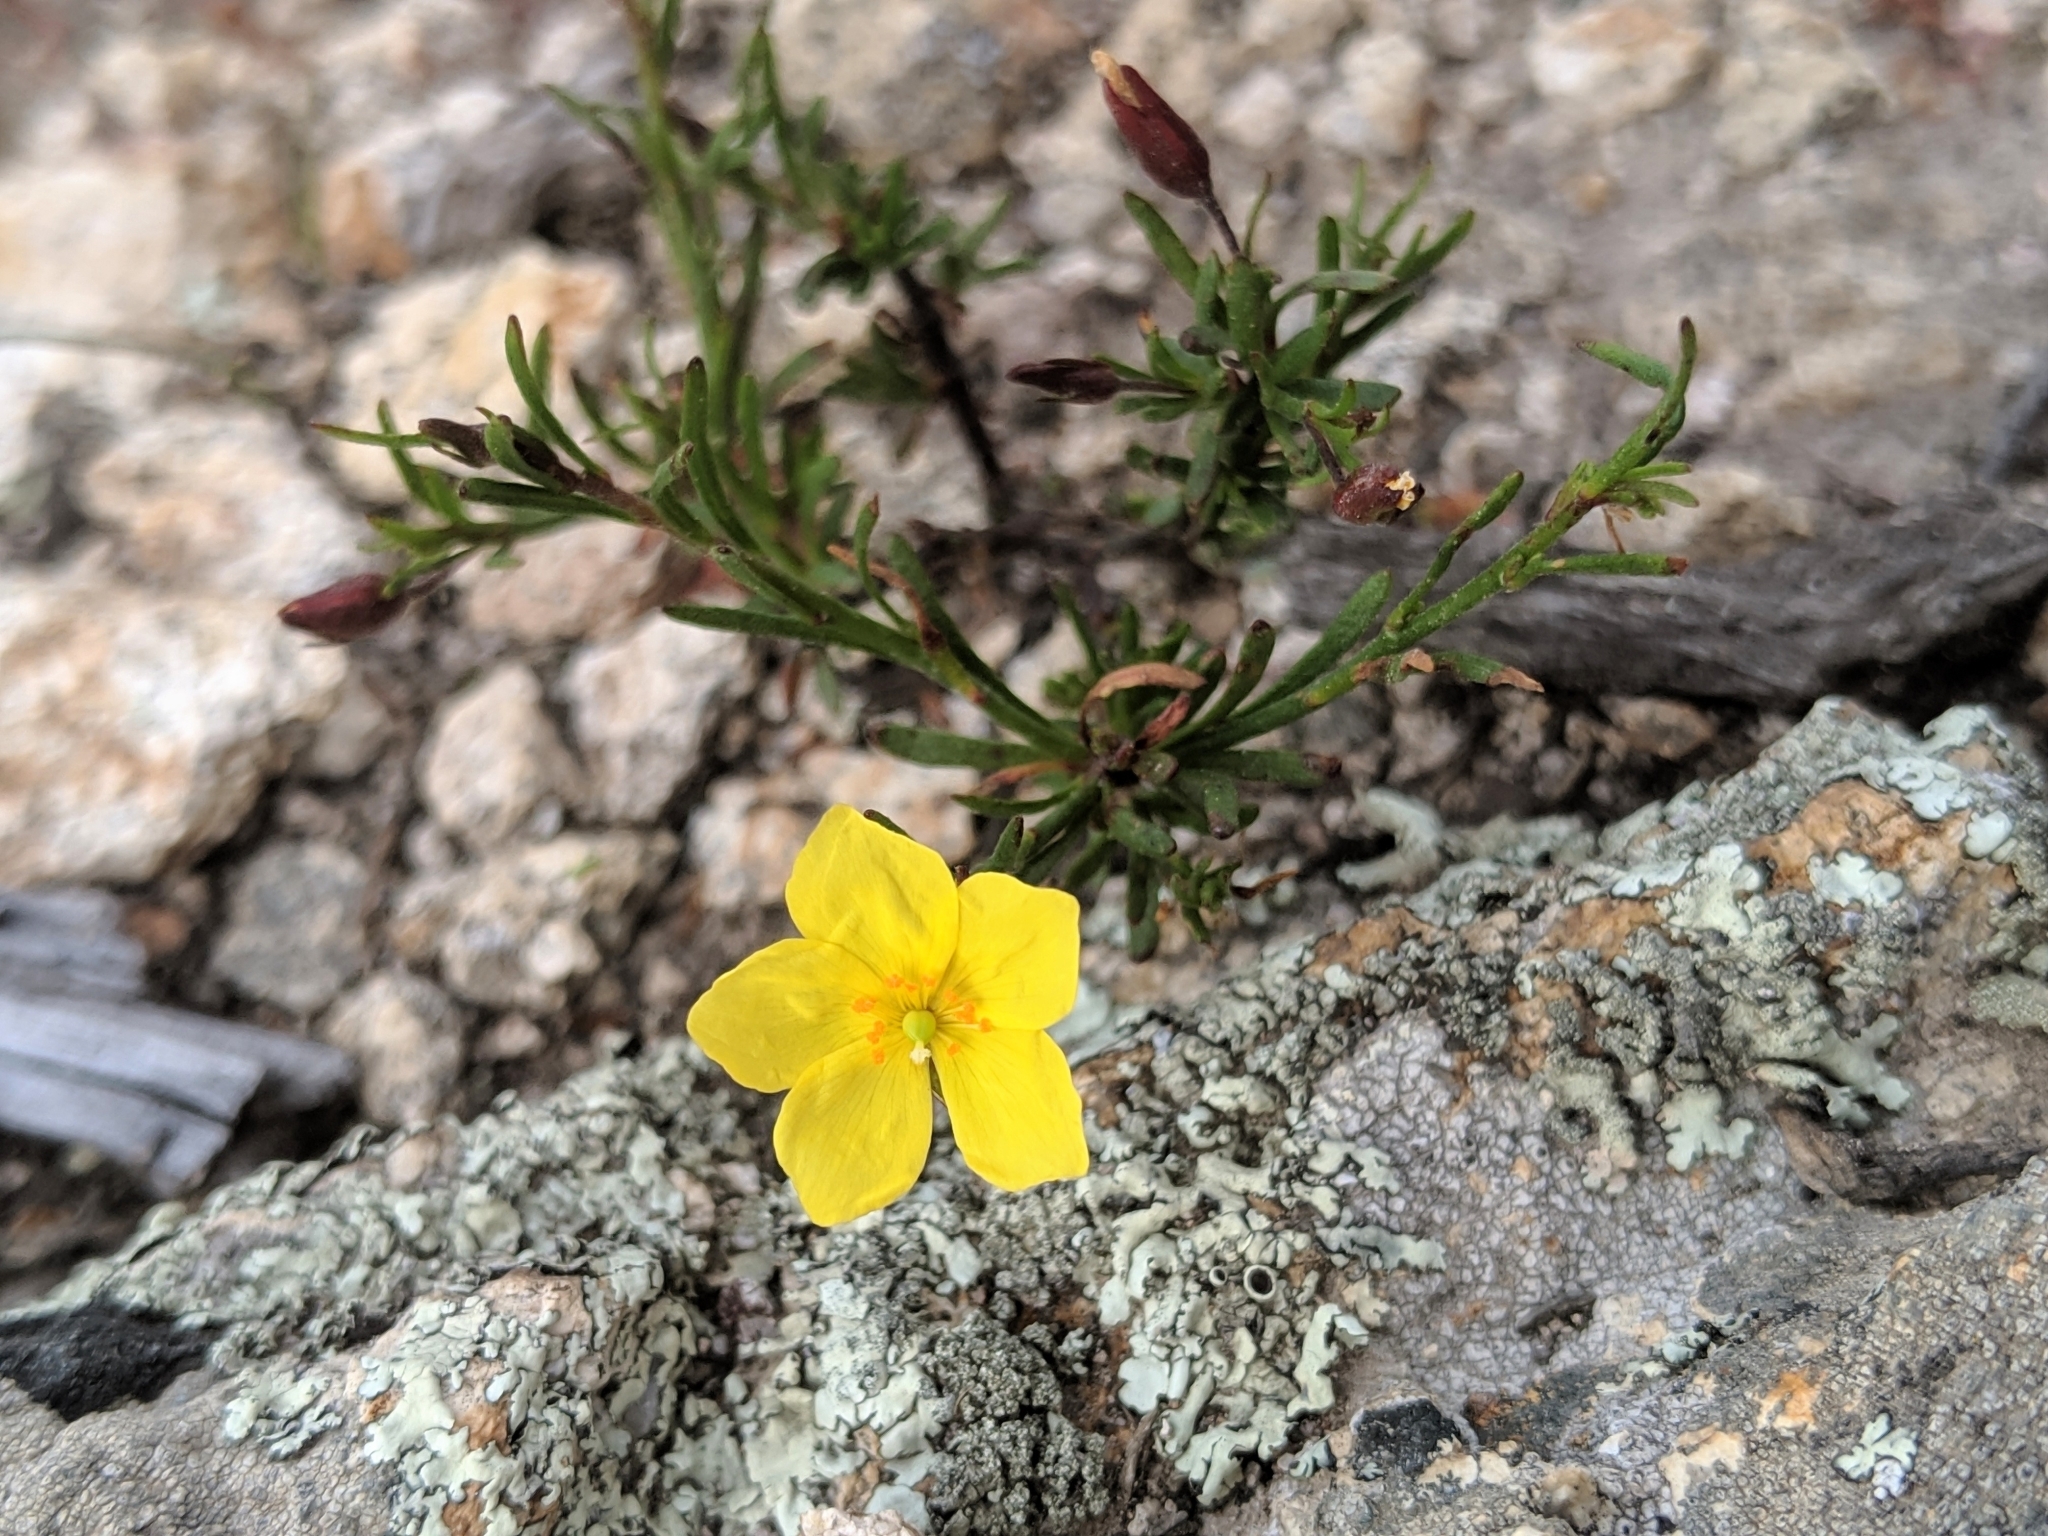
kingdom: Plantae
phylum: Tracheophyta
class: Magnoliopsida
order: Malvales
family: Cistaceae
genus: Crocanthemum
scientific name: Crocanthemum scoparium
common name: Broom-rose
